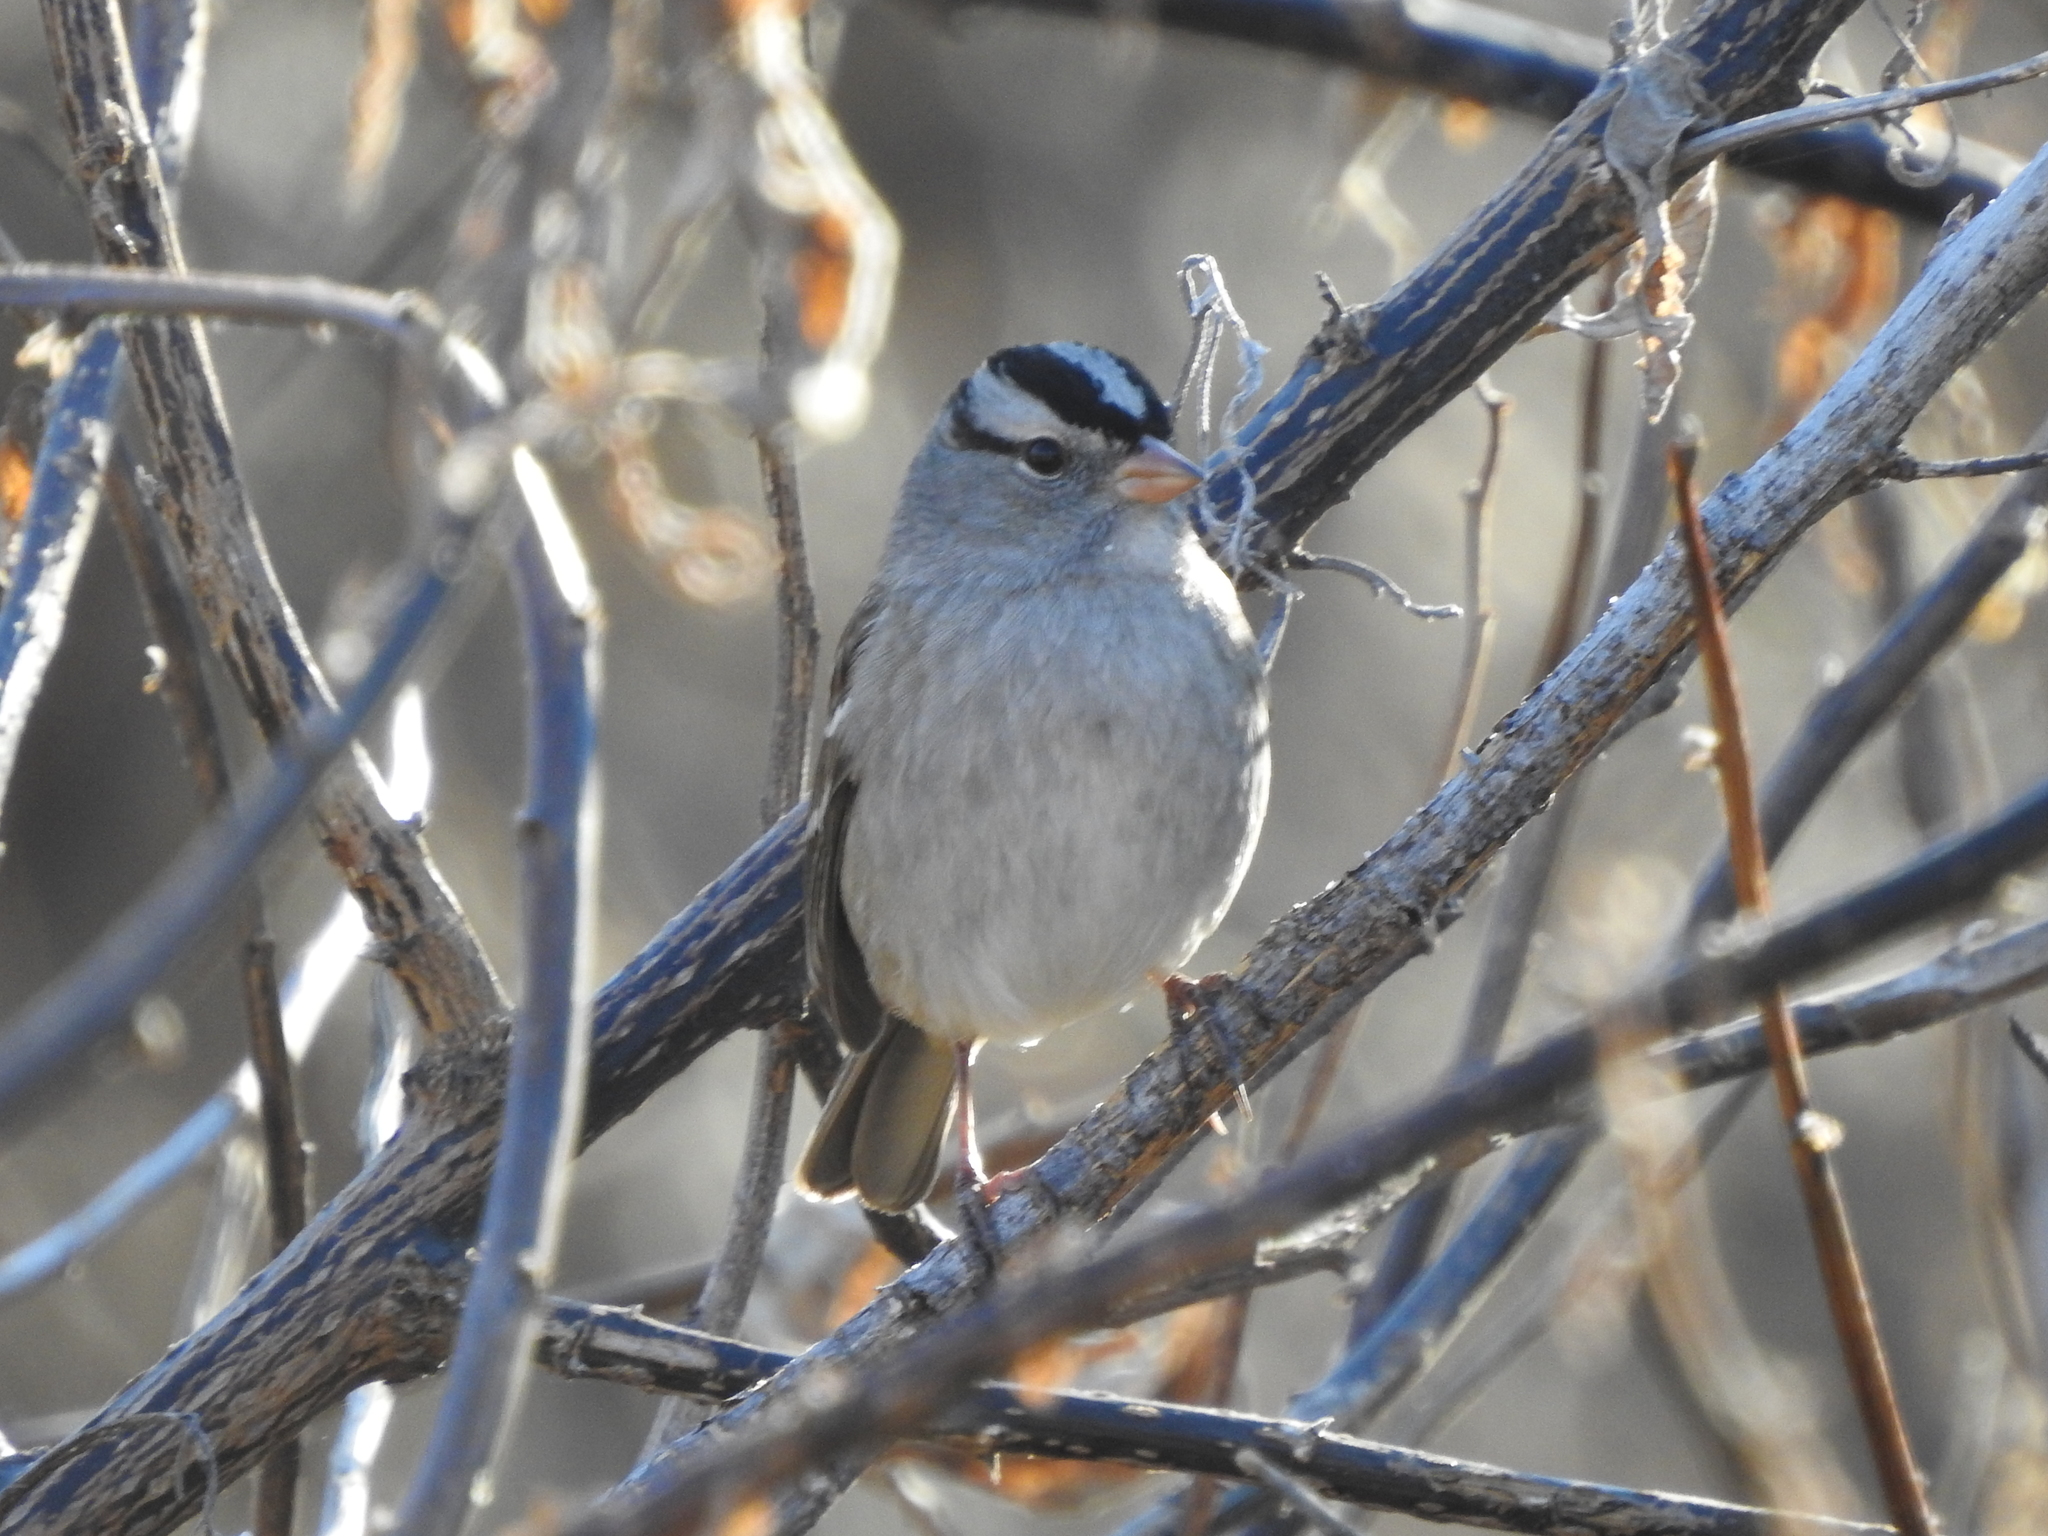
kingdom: Animalia
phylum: Chordata
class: Aves
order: Passeriformes
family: Passerellidae
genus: Zonotrichia
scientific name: Zonotrichia leucophrys
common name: White-crowned sparrow
